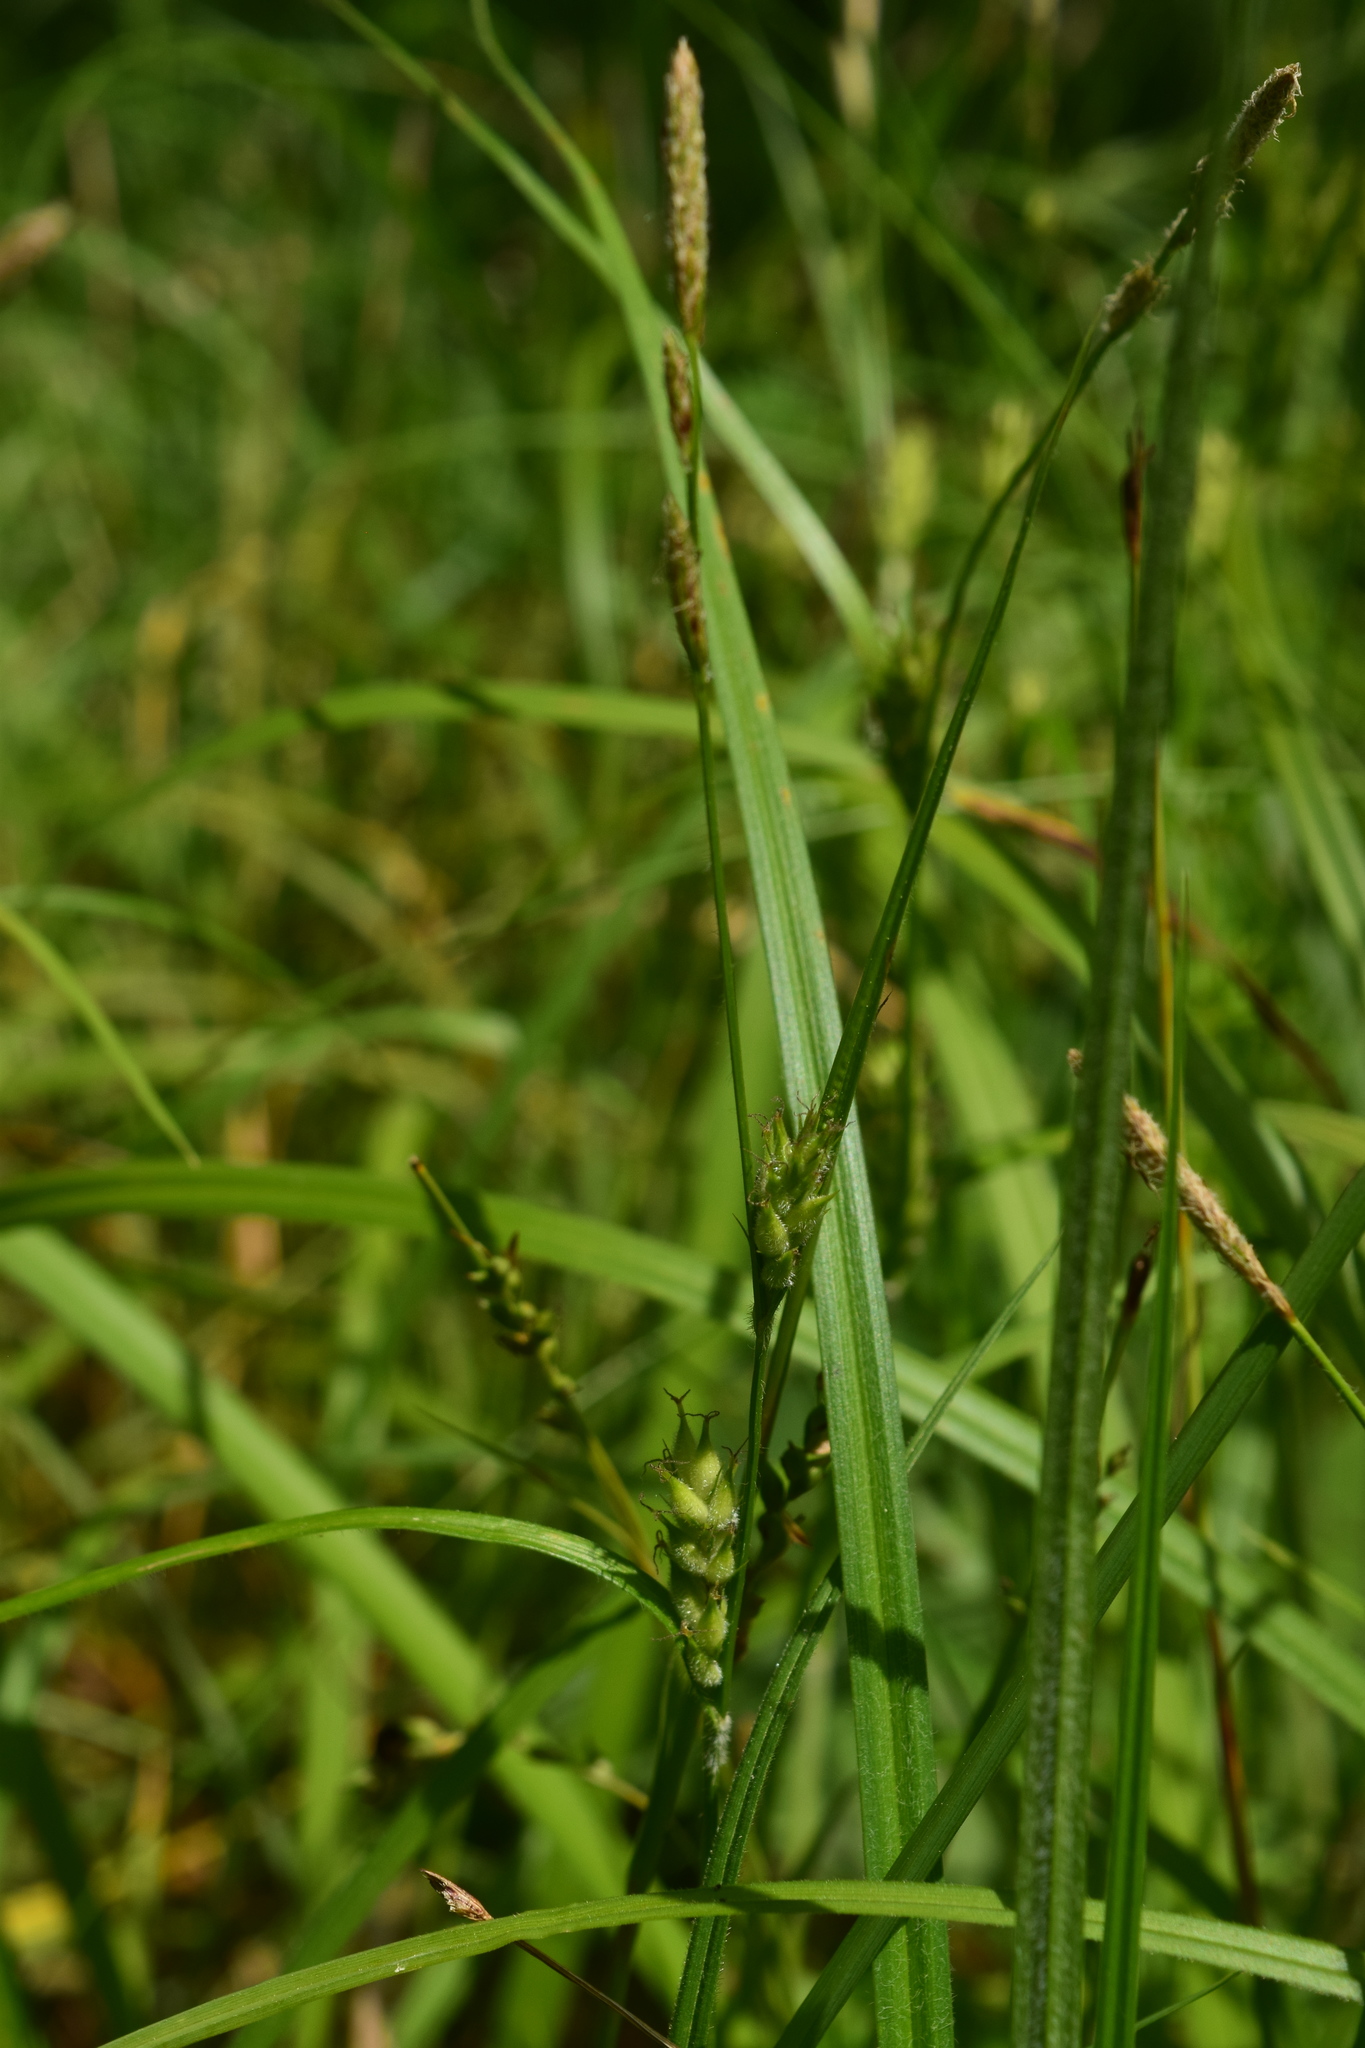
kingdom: Plantae
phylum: Tracheophyta
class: Liliopsida
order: Poales
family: Cyperaceae
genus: Carex
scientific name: Carex hirta
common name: Hairy sedge
